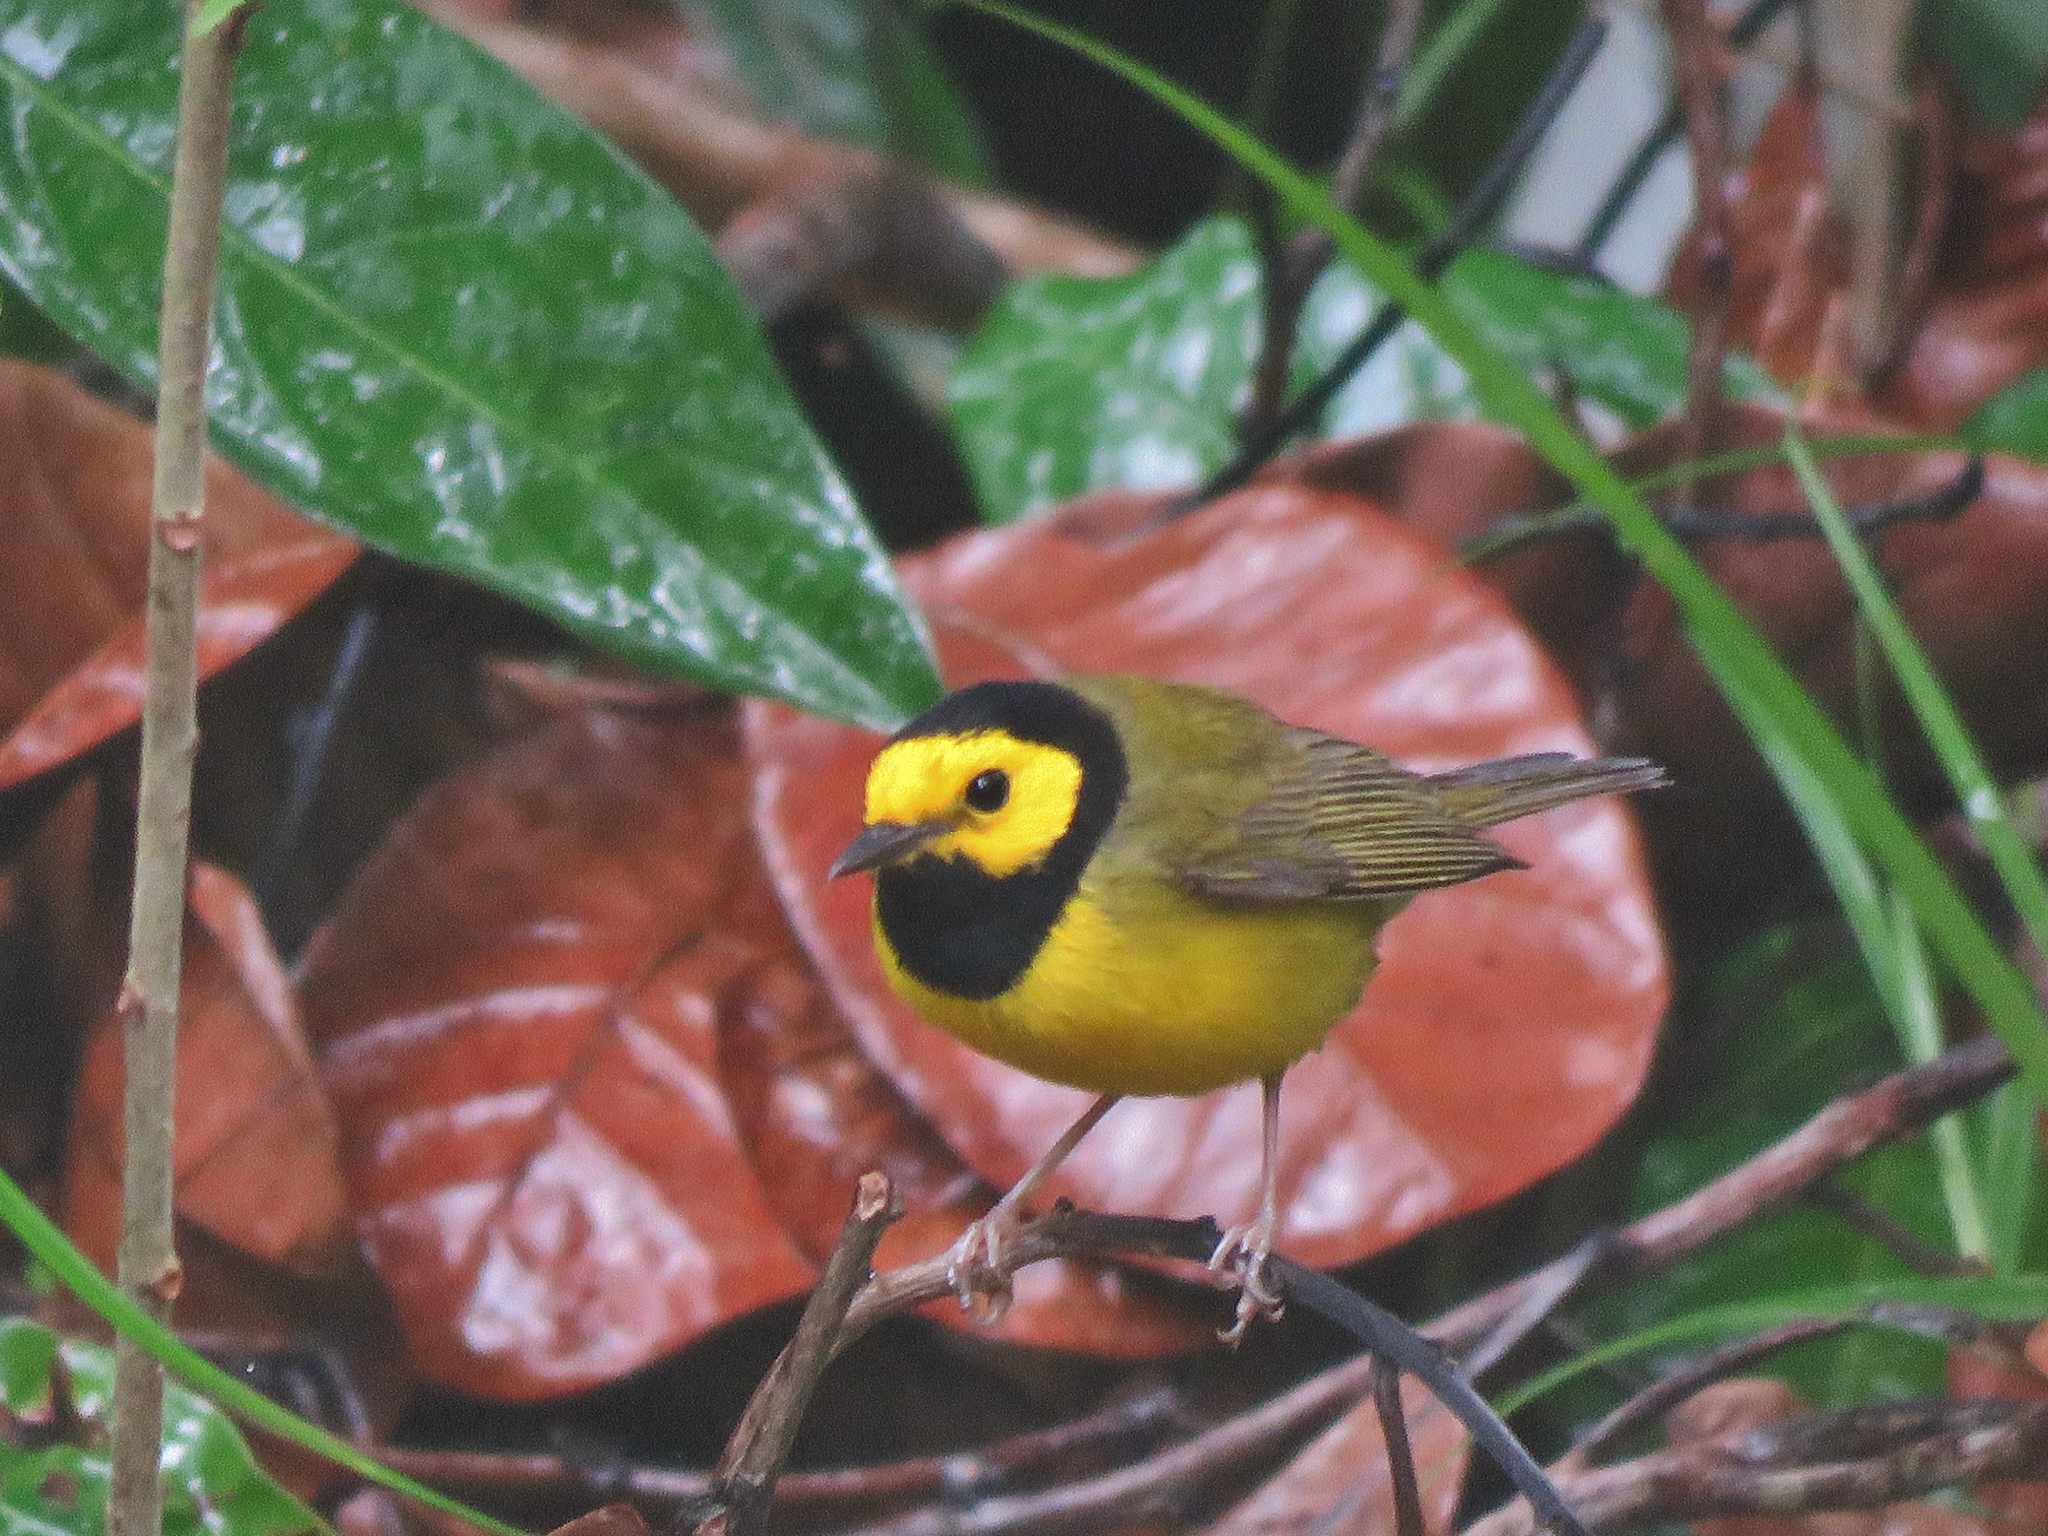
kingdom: Animalia
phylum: Chordata
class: Aves
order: Passeriformes
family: Parulidae
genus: Setophaga
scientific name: Setophaga citrina
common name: Hooded warbler
